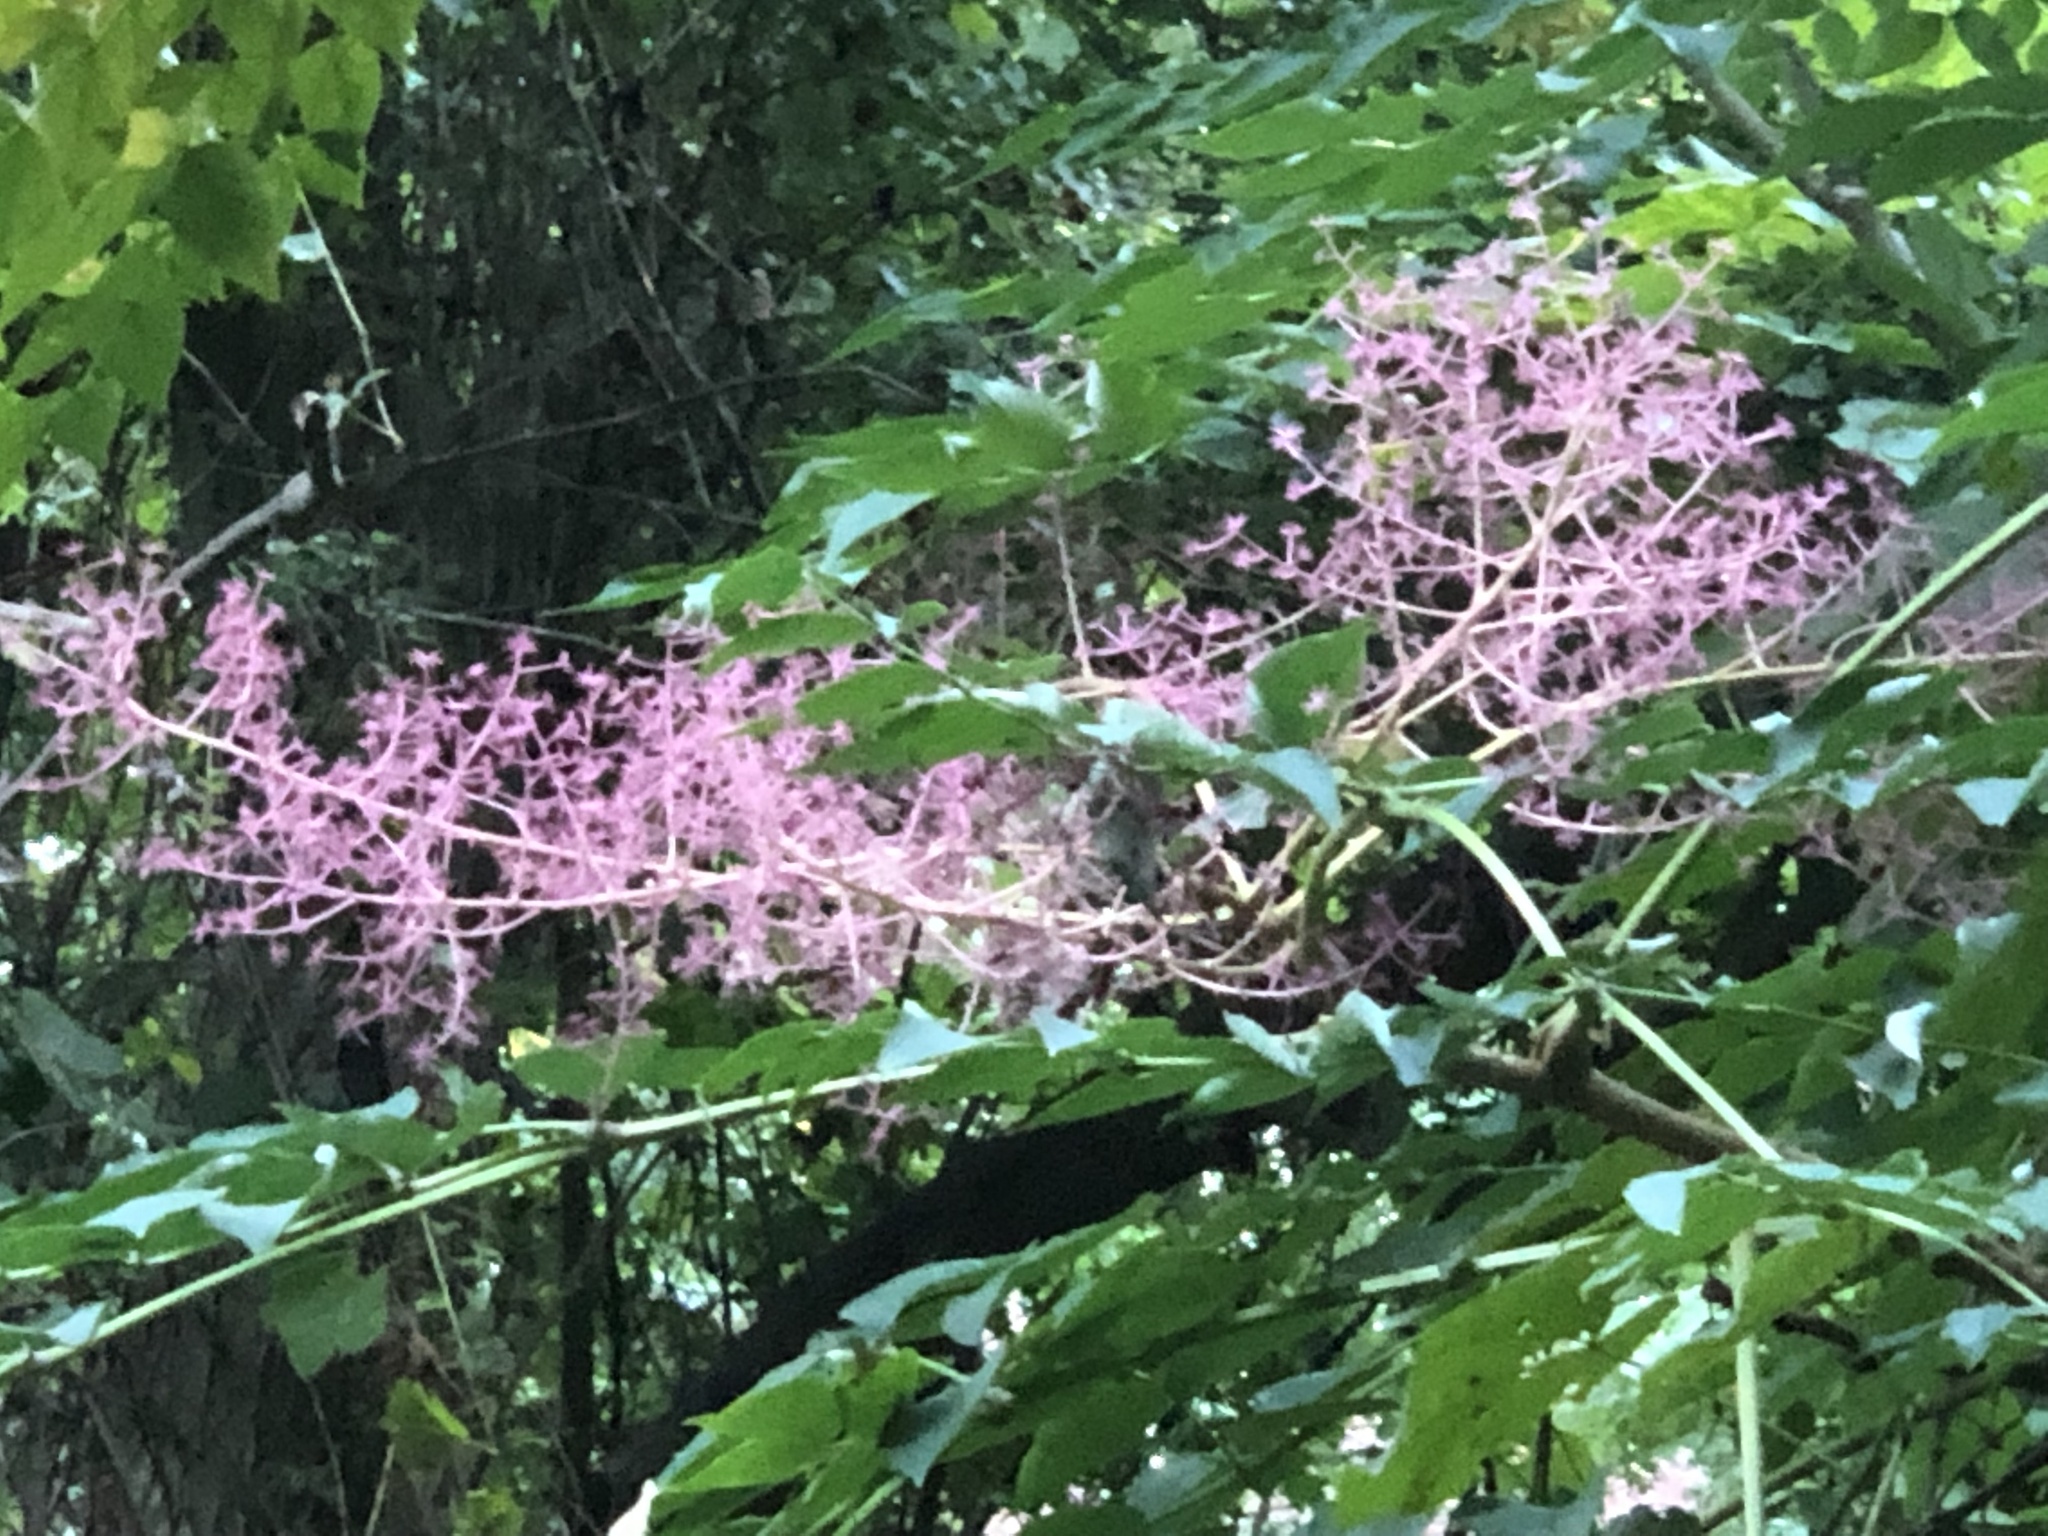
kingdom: Plantae
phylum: Tracheophyta
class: Magnoliopsida
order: Apiales
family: Araliaceae
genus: Aralia
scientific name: Aralia elata
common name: Japanese angelica-tree
